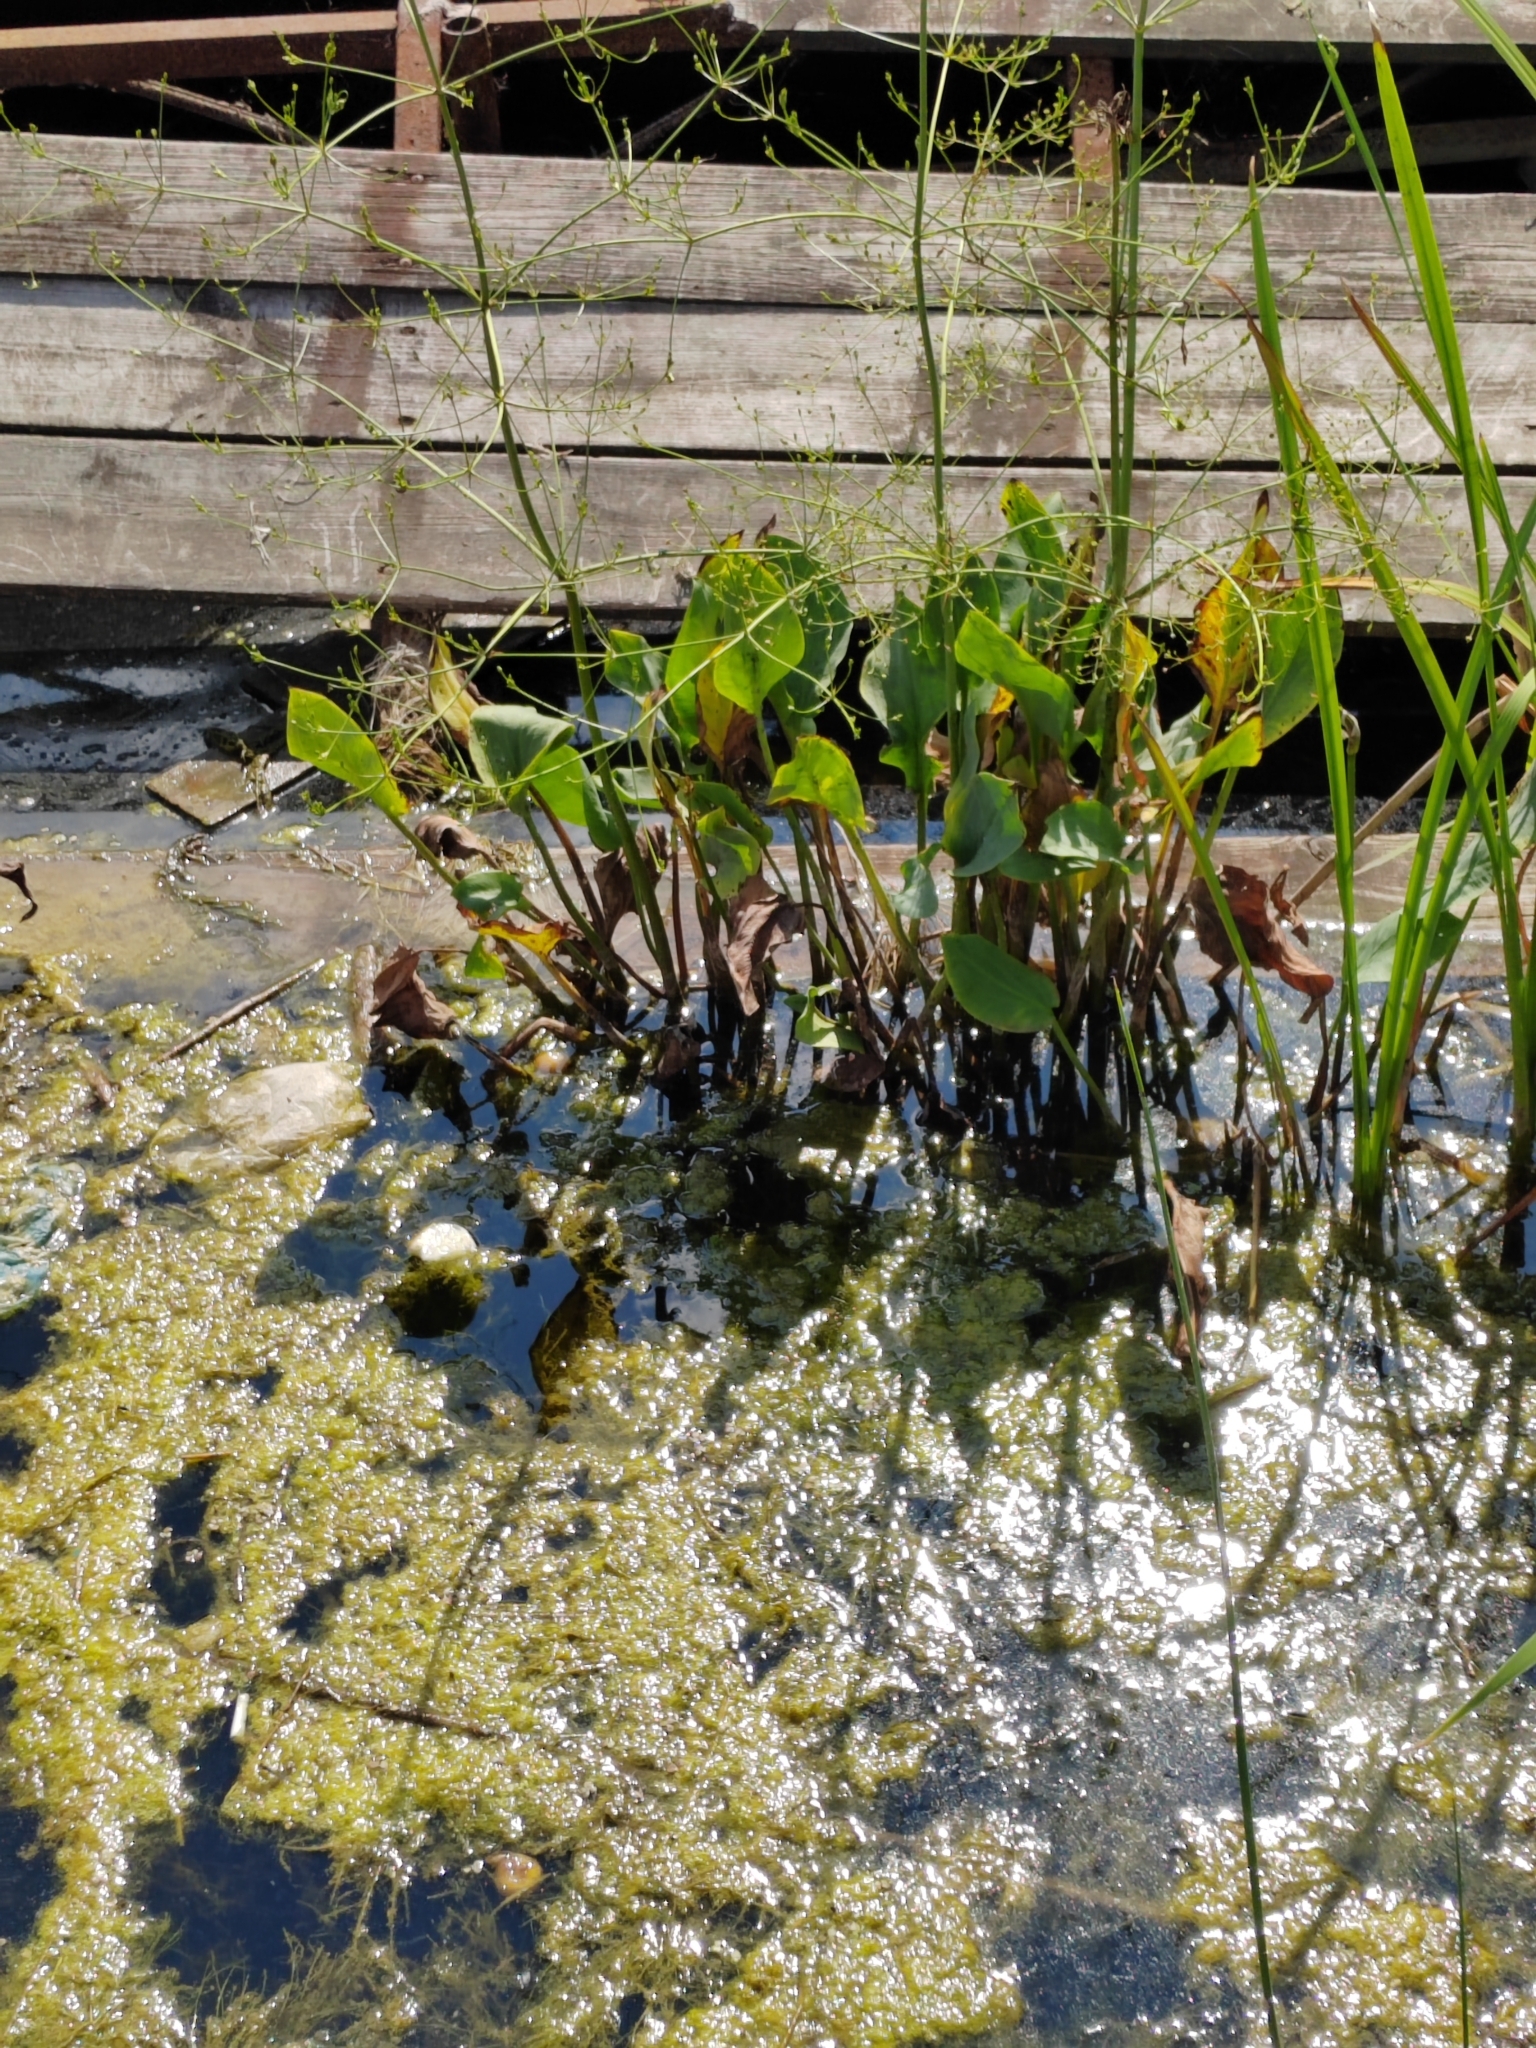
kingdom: Plantae
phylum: Tracheophyta
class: Liliopsida
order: Alismatales
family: Alismataceae
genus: Alisma
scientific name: Alisma plantago-aquatica
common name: Water-plantain
